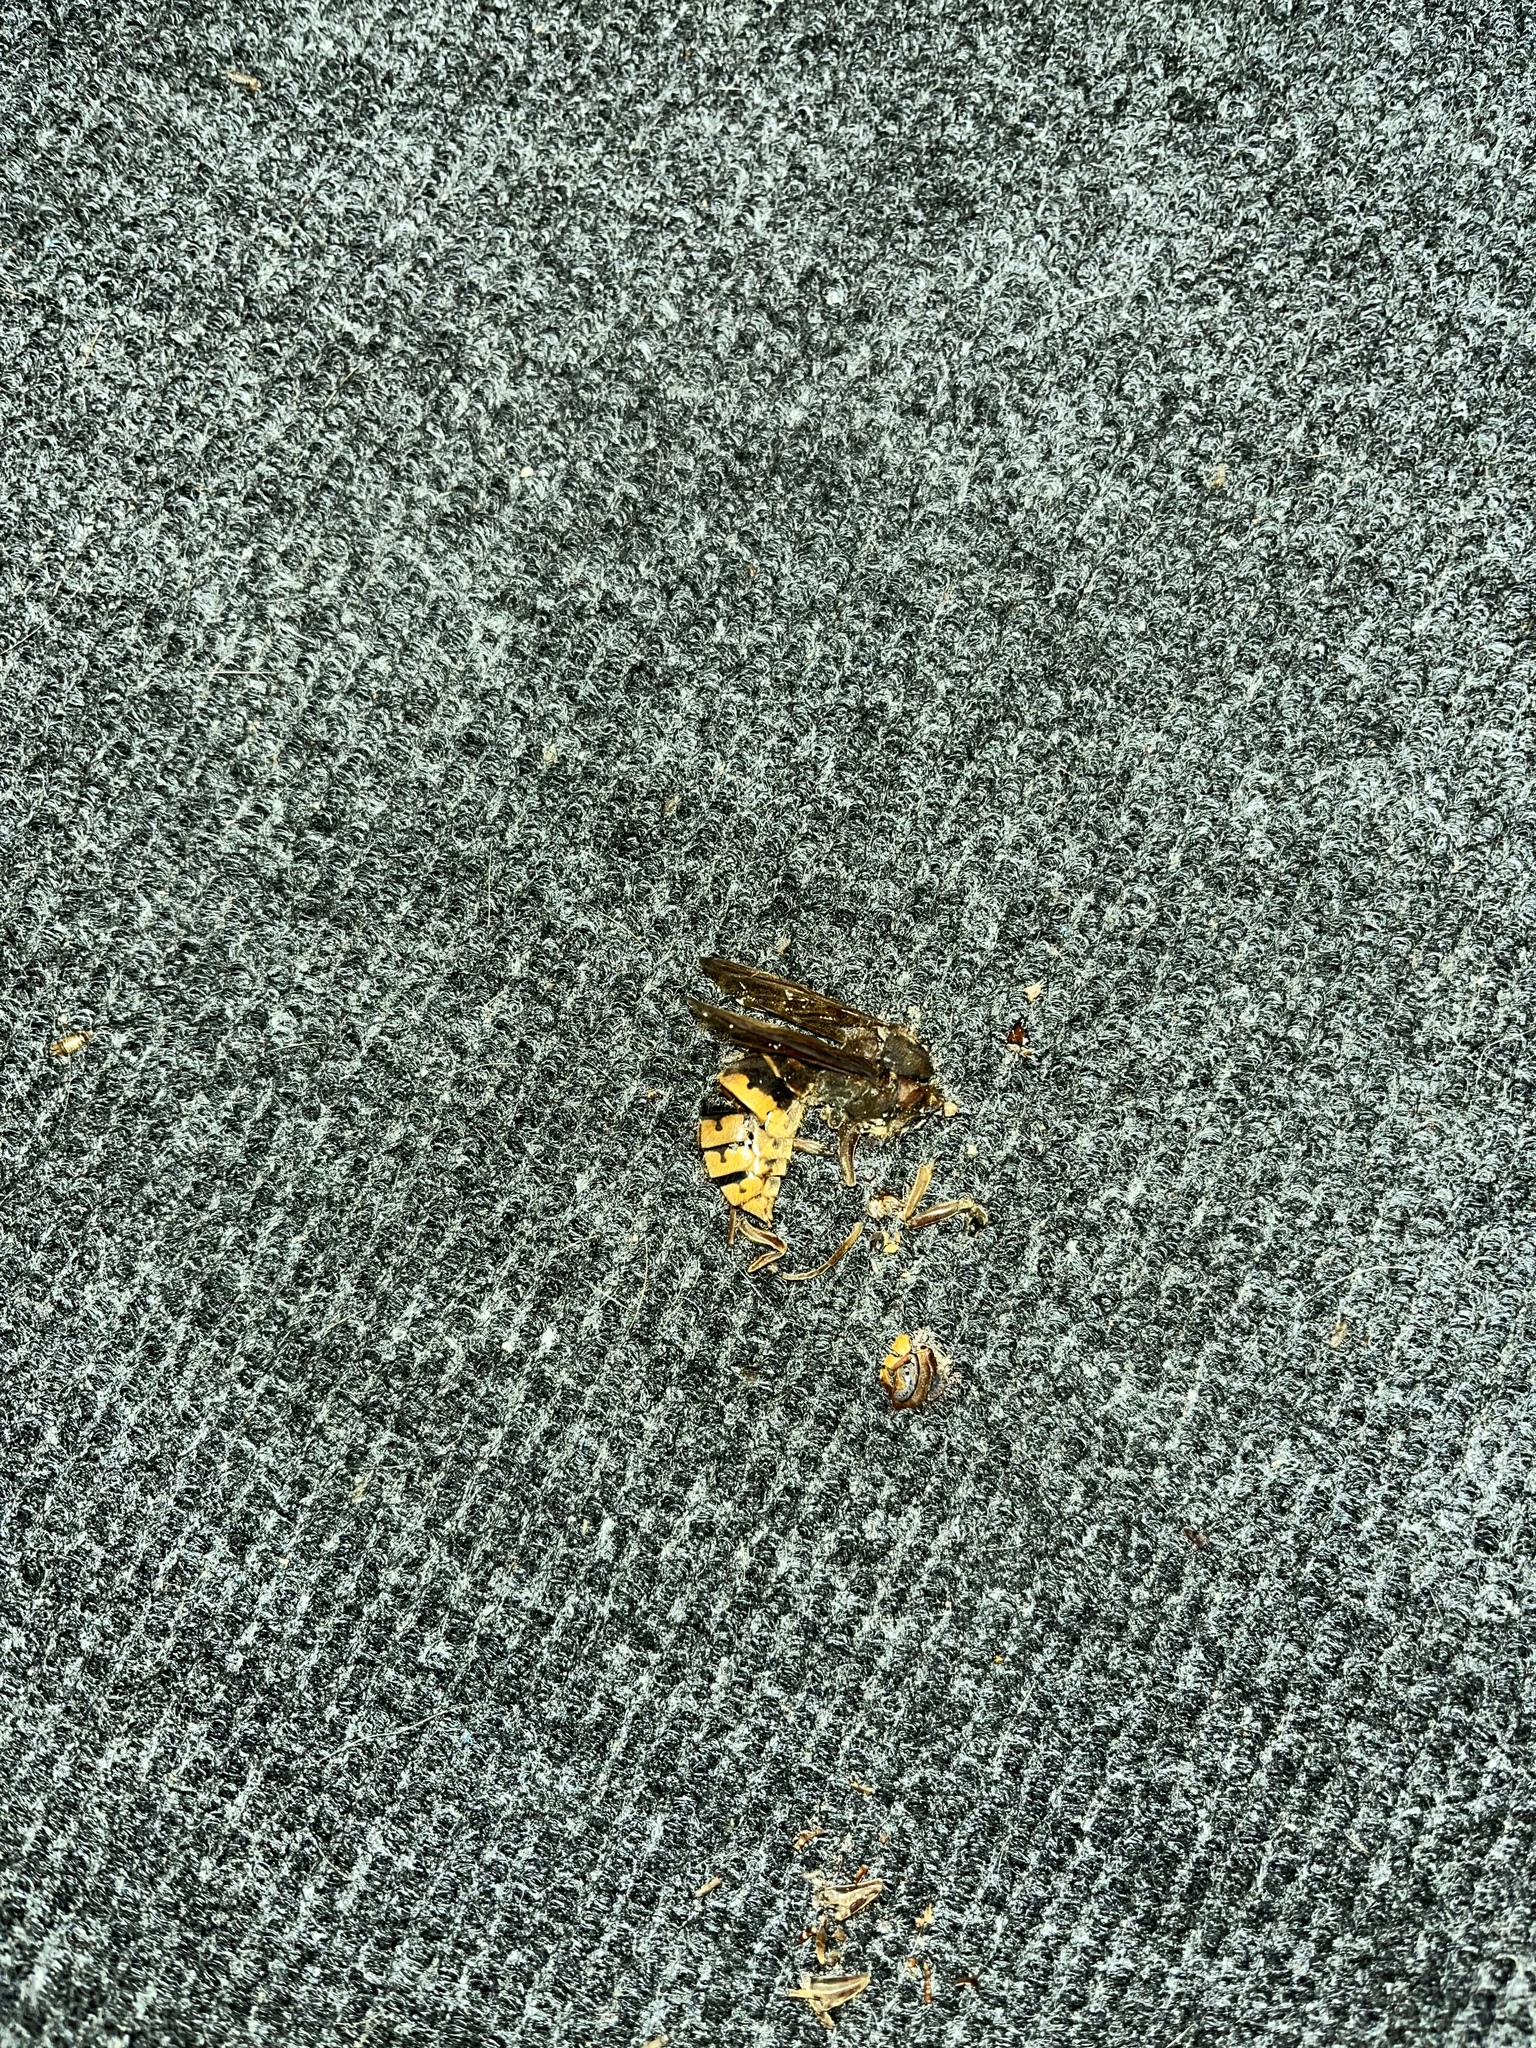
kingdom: Animalia
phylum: Arthropoda
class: Insecta
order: Hymenoptera
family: Vespidae
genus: Vespa
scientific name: Vespa crabro
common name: Hornet
